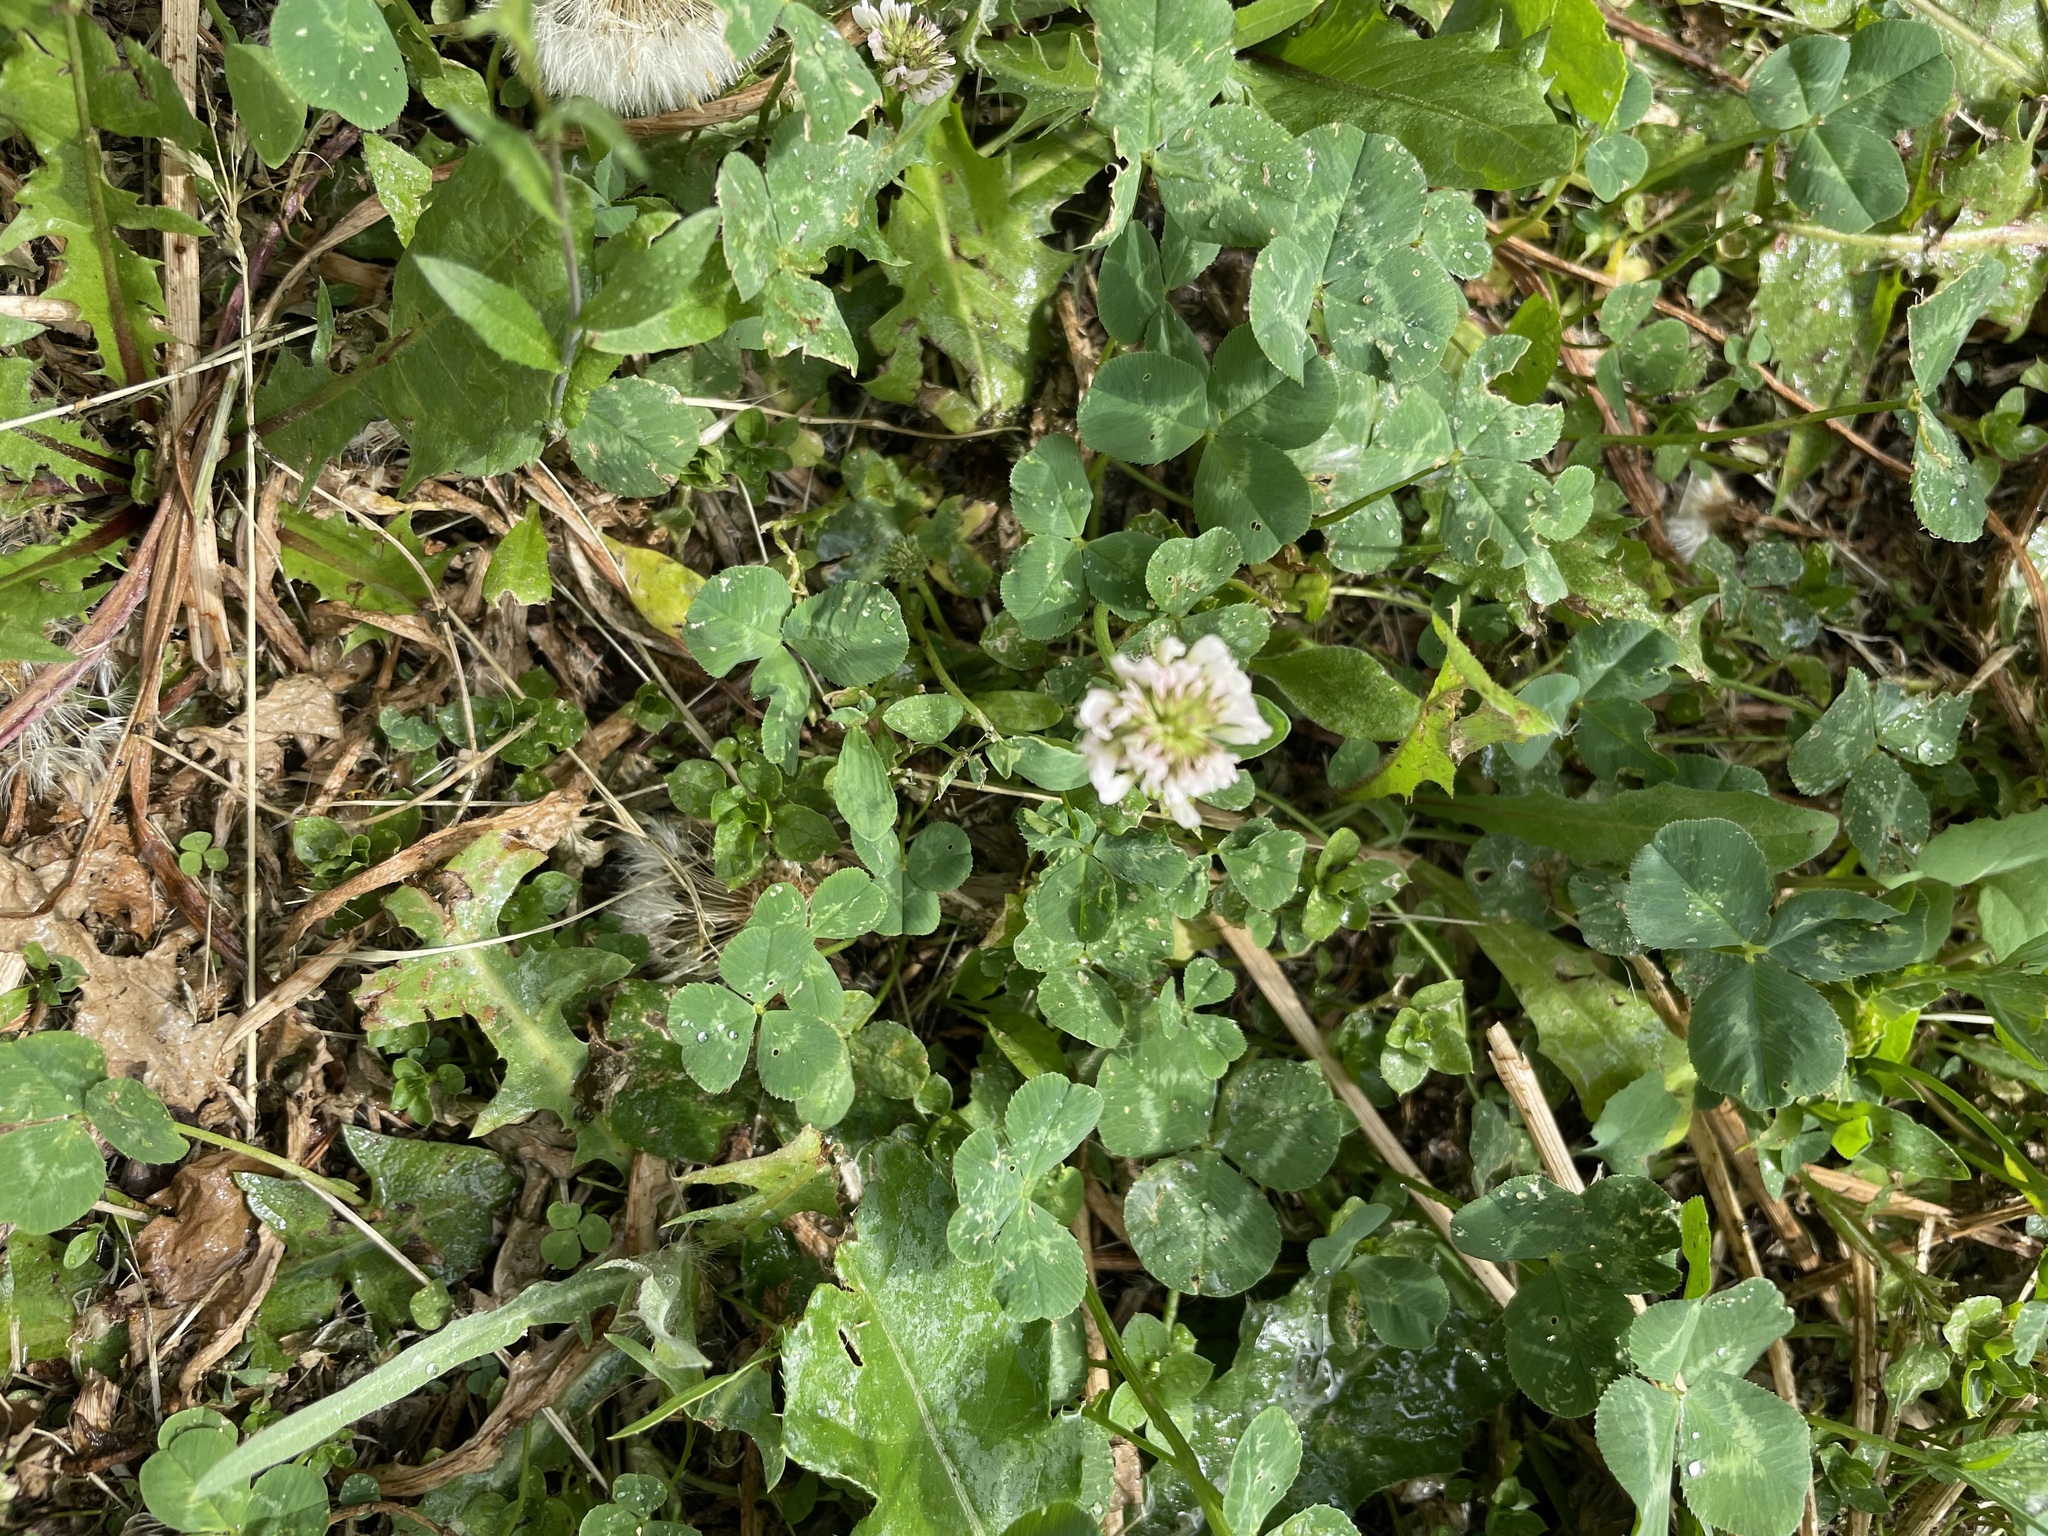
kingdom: Plantae
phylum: Tracheophyta
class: Magnoliopsida
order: Fabales
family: Fabaceae
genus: Trifolium
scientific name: Trifolium repens
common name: White clover
